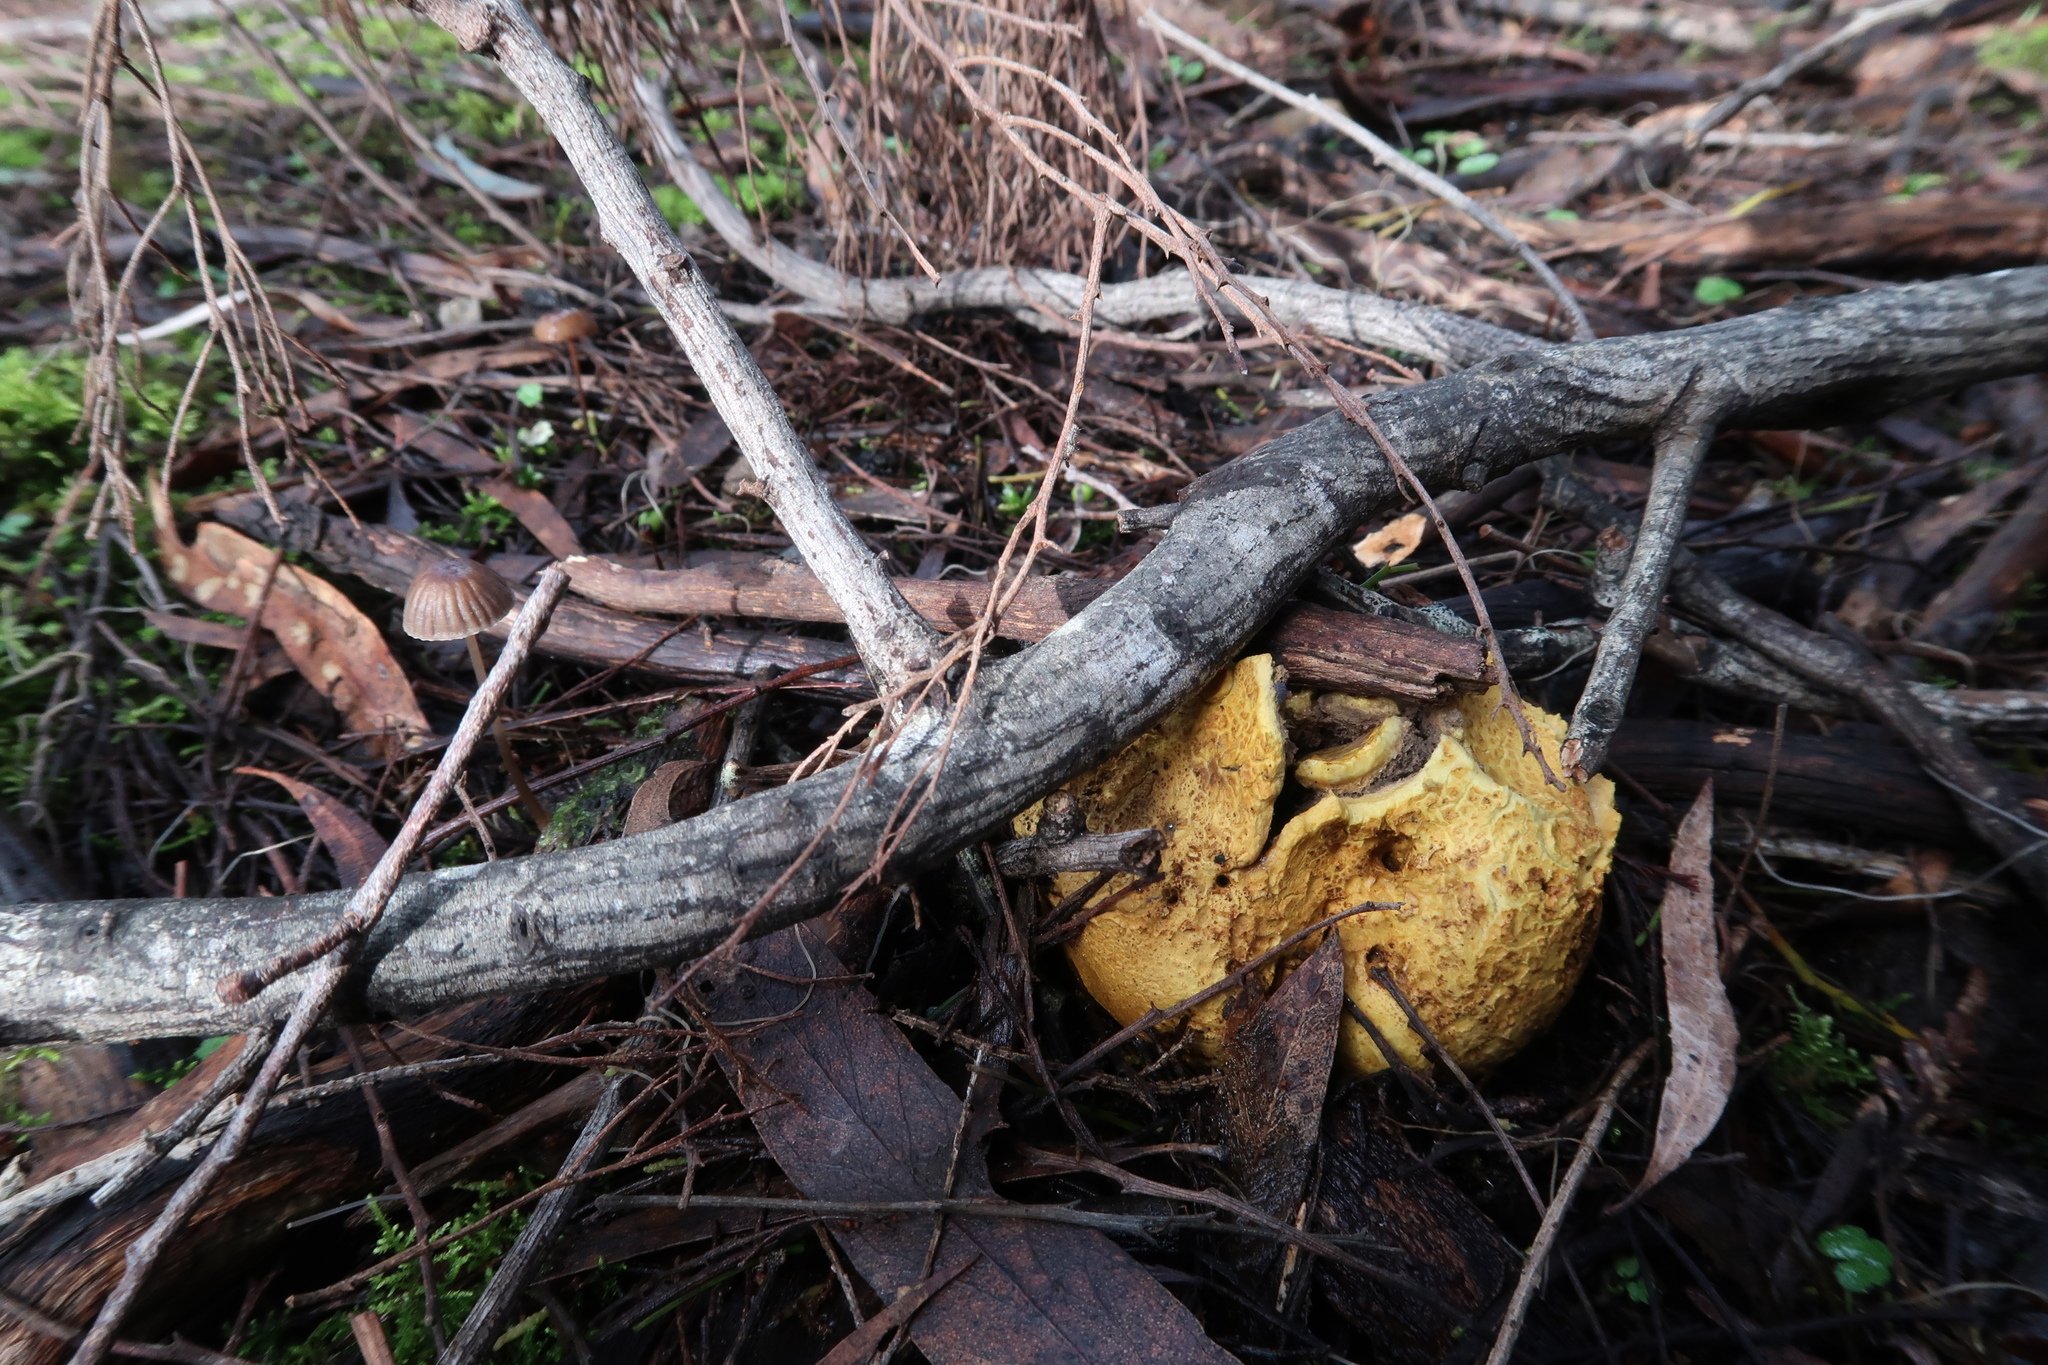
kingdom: Fungi
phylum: Basidiomycota
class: Agaricomycetes
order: Boletales
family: Sclerodermataceae
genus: Scleroderma
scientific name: Scleroderma cepa
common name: Onion earthball
